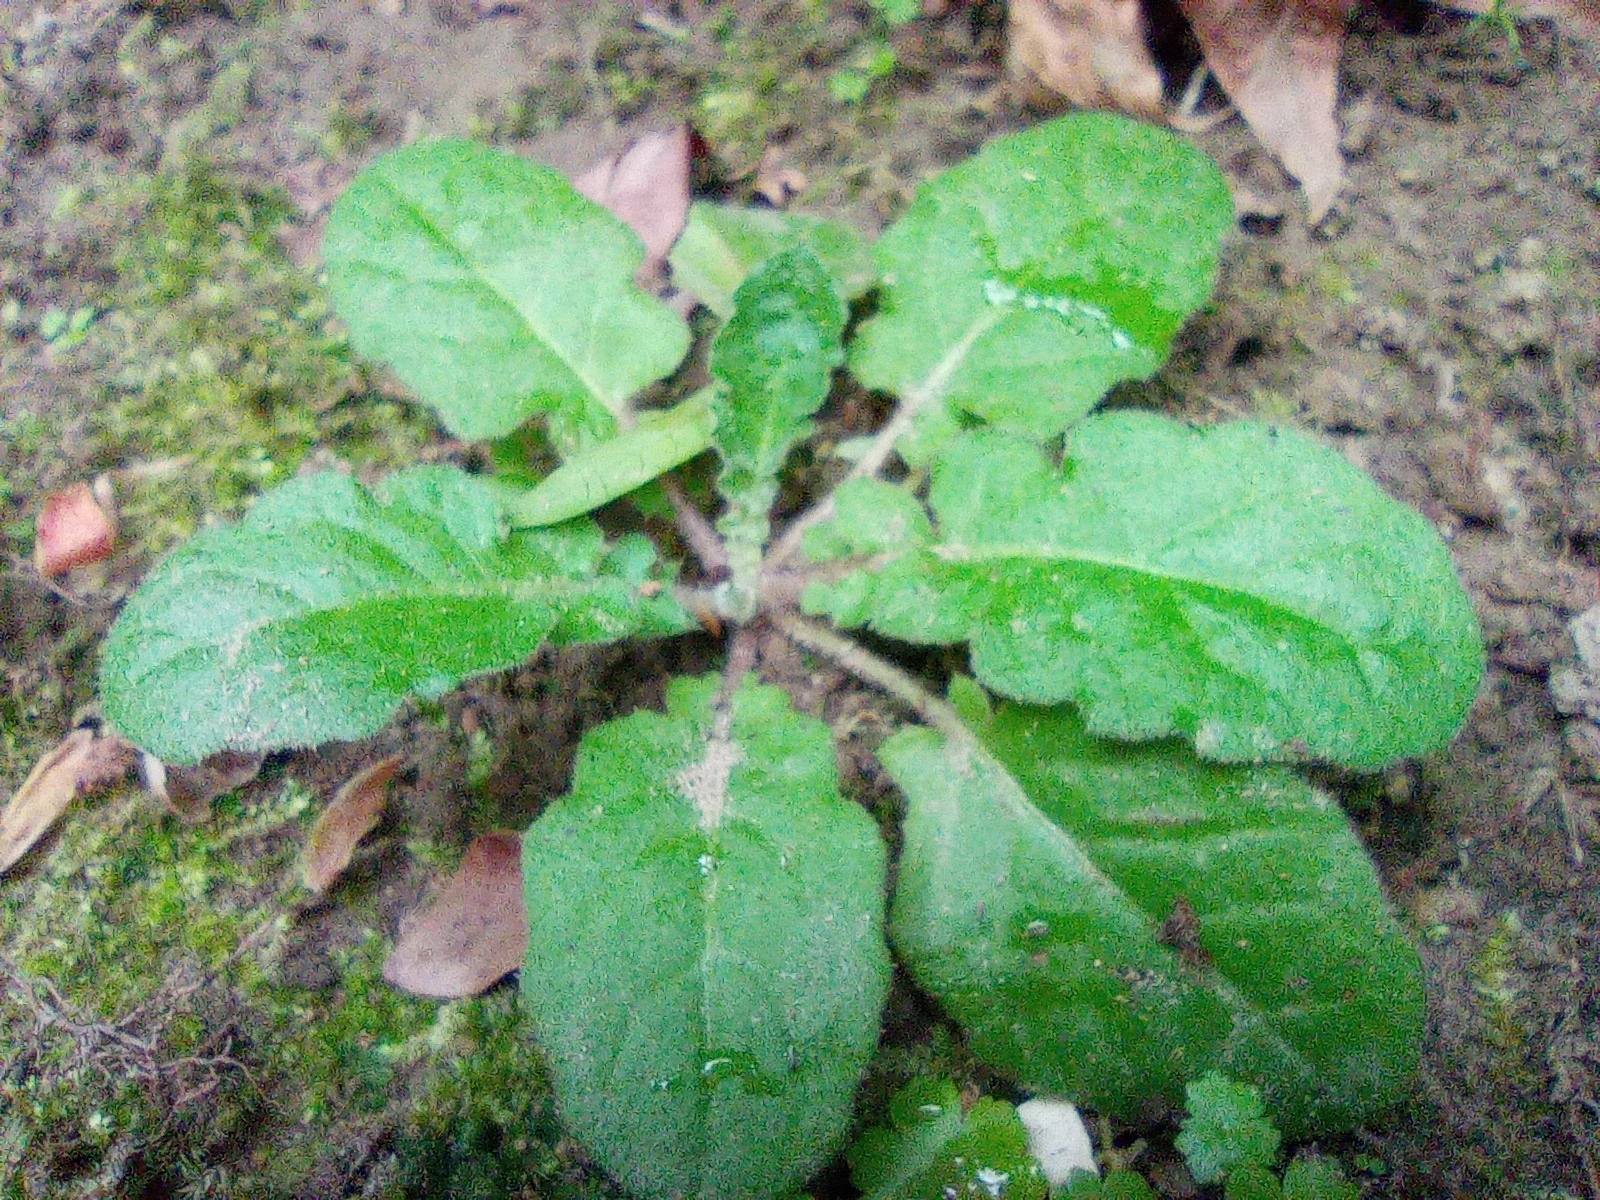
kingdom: Plantae
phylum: Tracheophyta
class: Magnoliopsida
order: Asterales
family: Asteraceae
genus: Youngia
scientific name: Youngia japonica
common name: Oriental false hawksbeard
